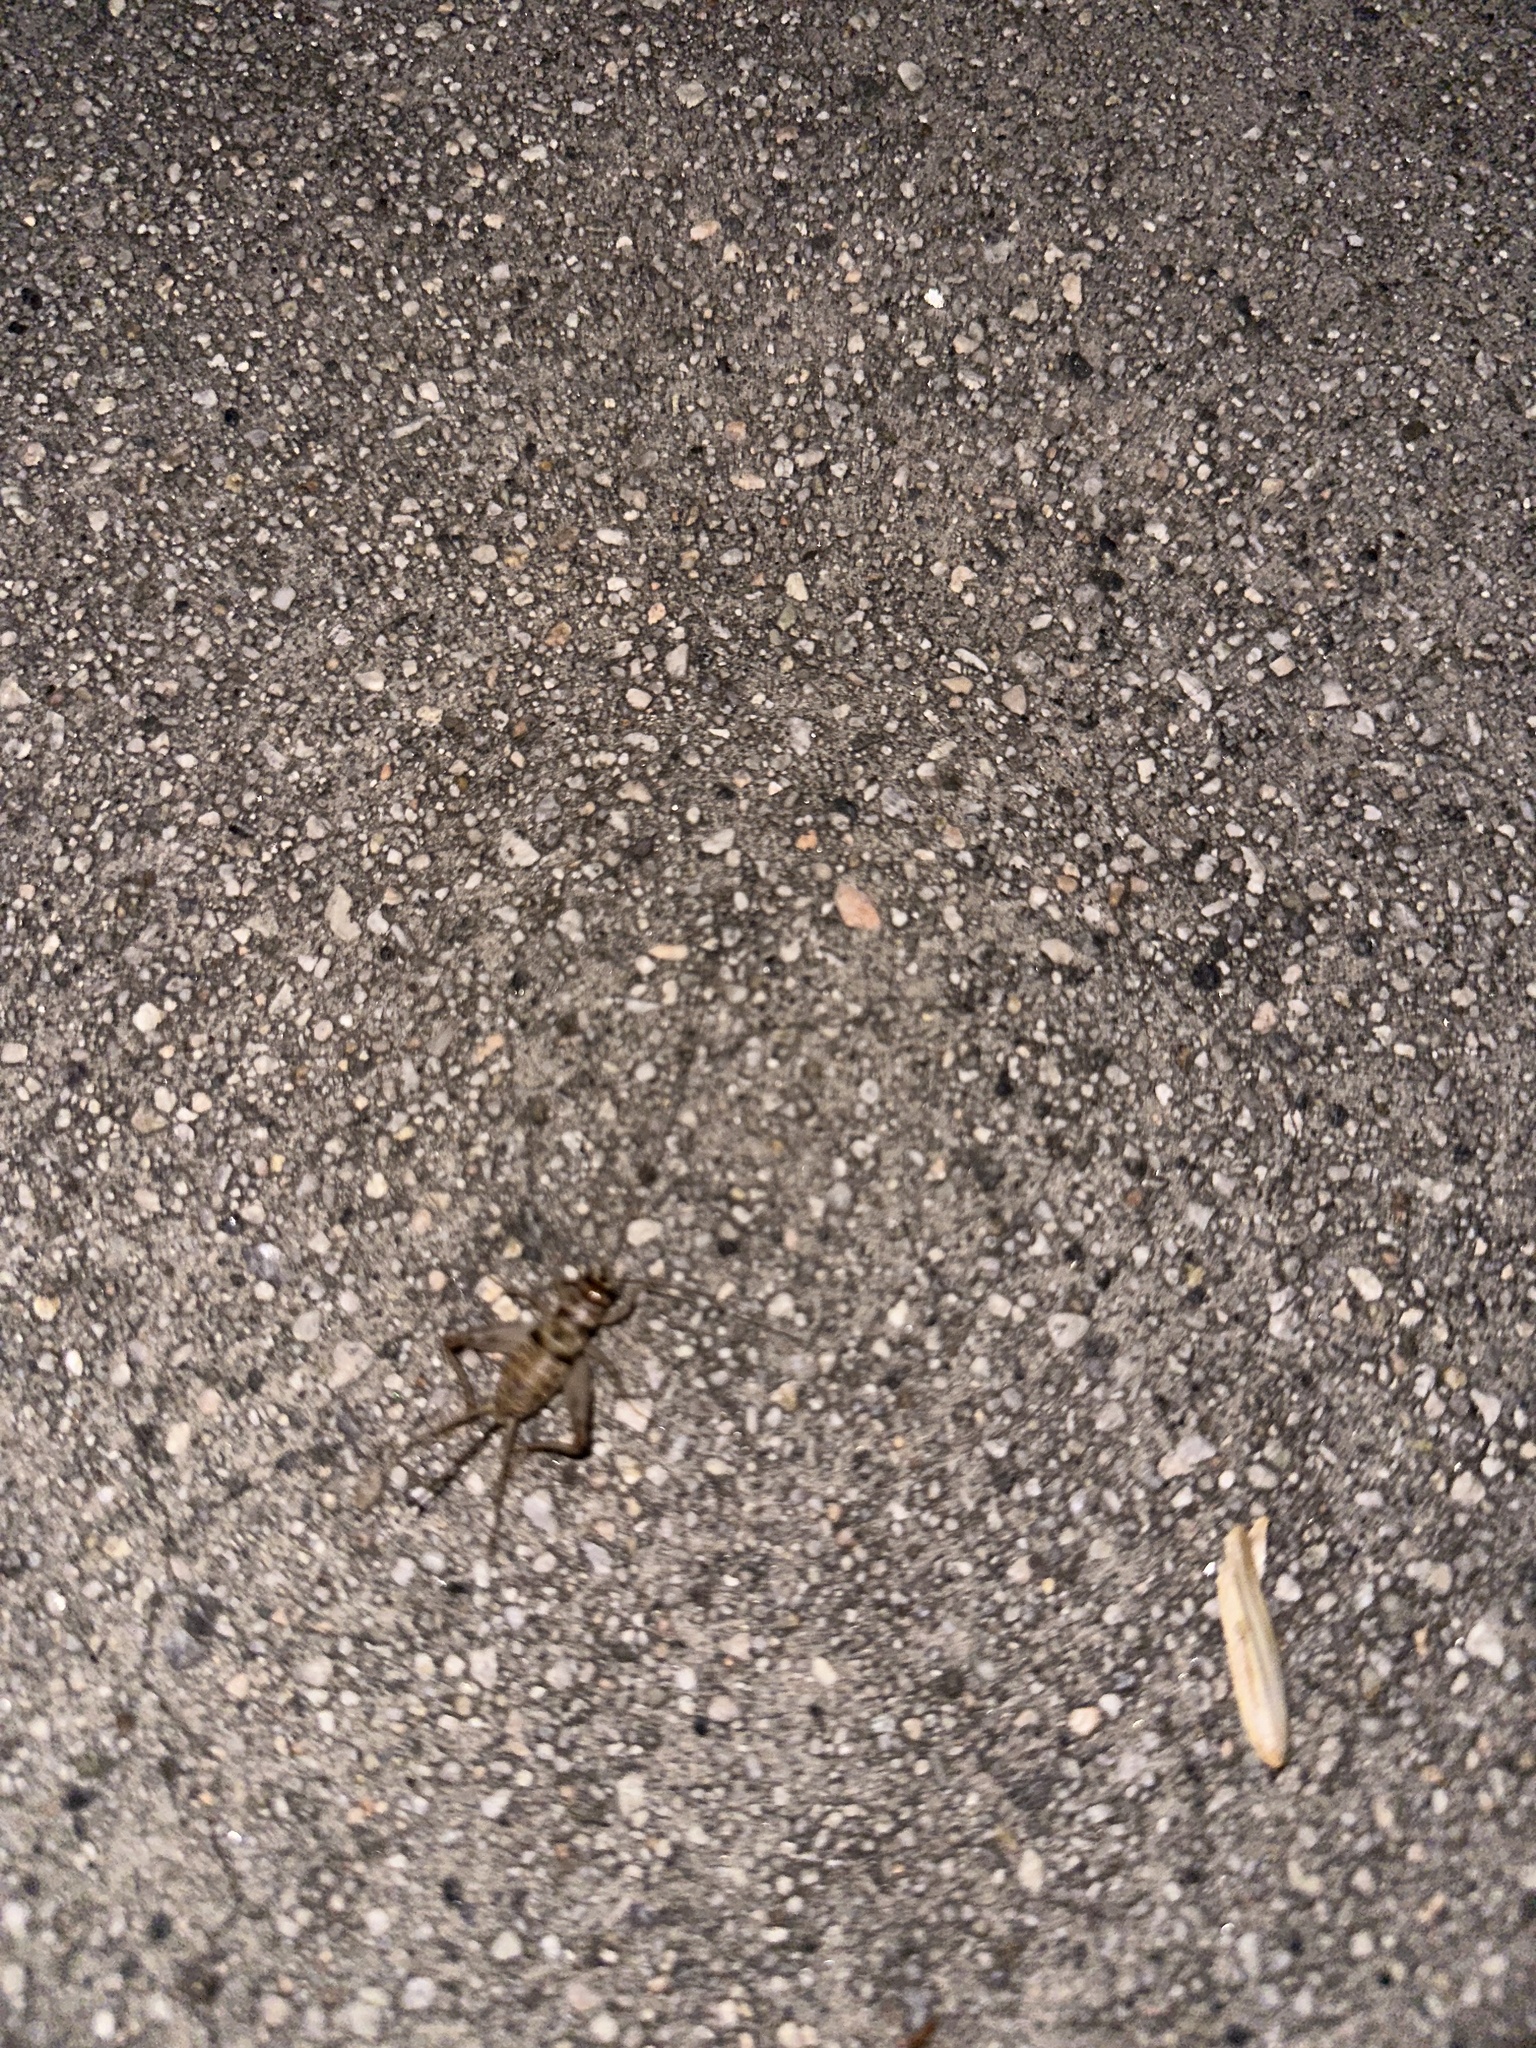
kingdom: Animalia
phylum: Arthropoda
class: Insecta
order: Orthoptera
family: Gryllidae
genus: Gryllodes
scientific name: Gryllodes sigillatus
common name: Tropical house cricket
